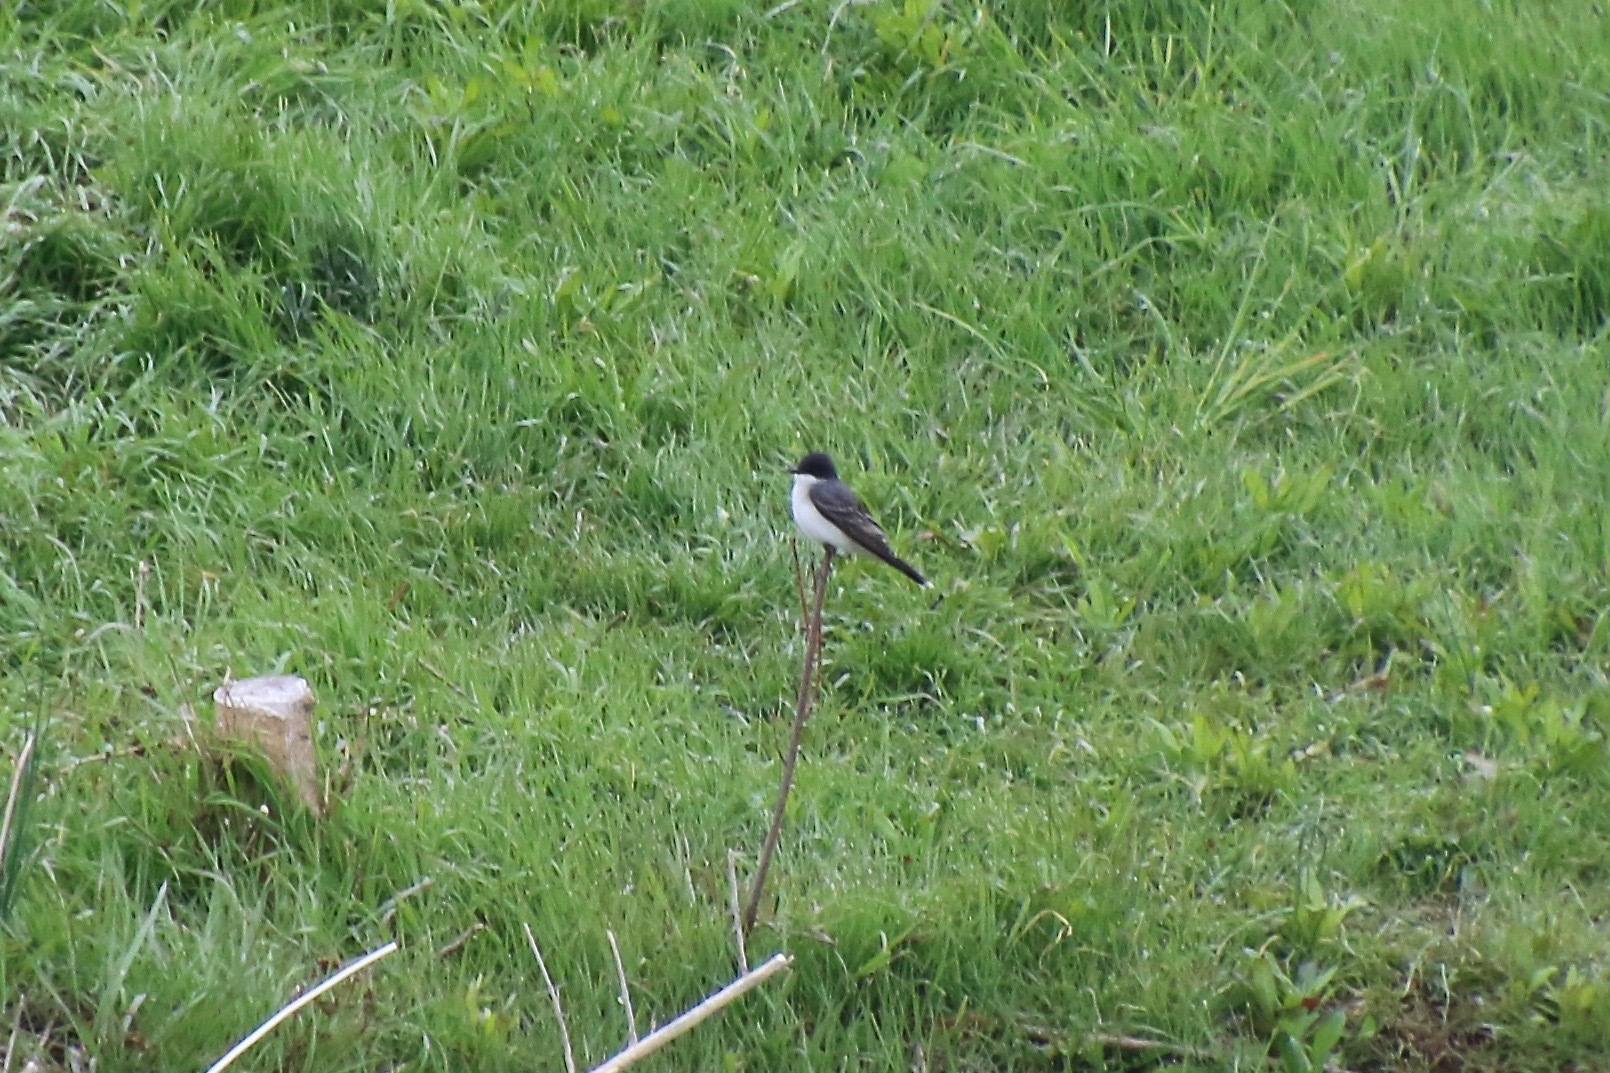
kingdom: Animalia
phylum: Chordata
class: Aves
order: Passeriformes
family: Tyrannidae
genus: Tyrannus
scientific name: Tyrannus tyrannus
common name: Eastern kingbird
